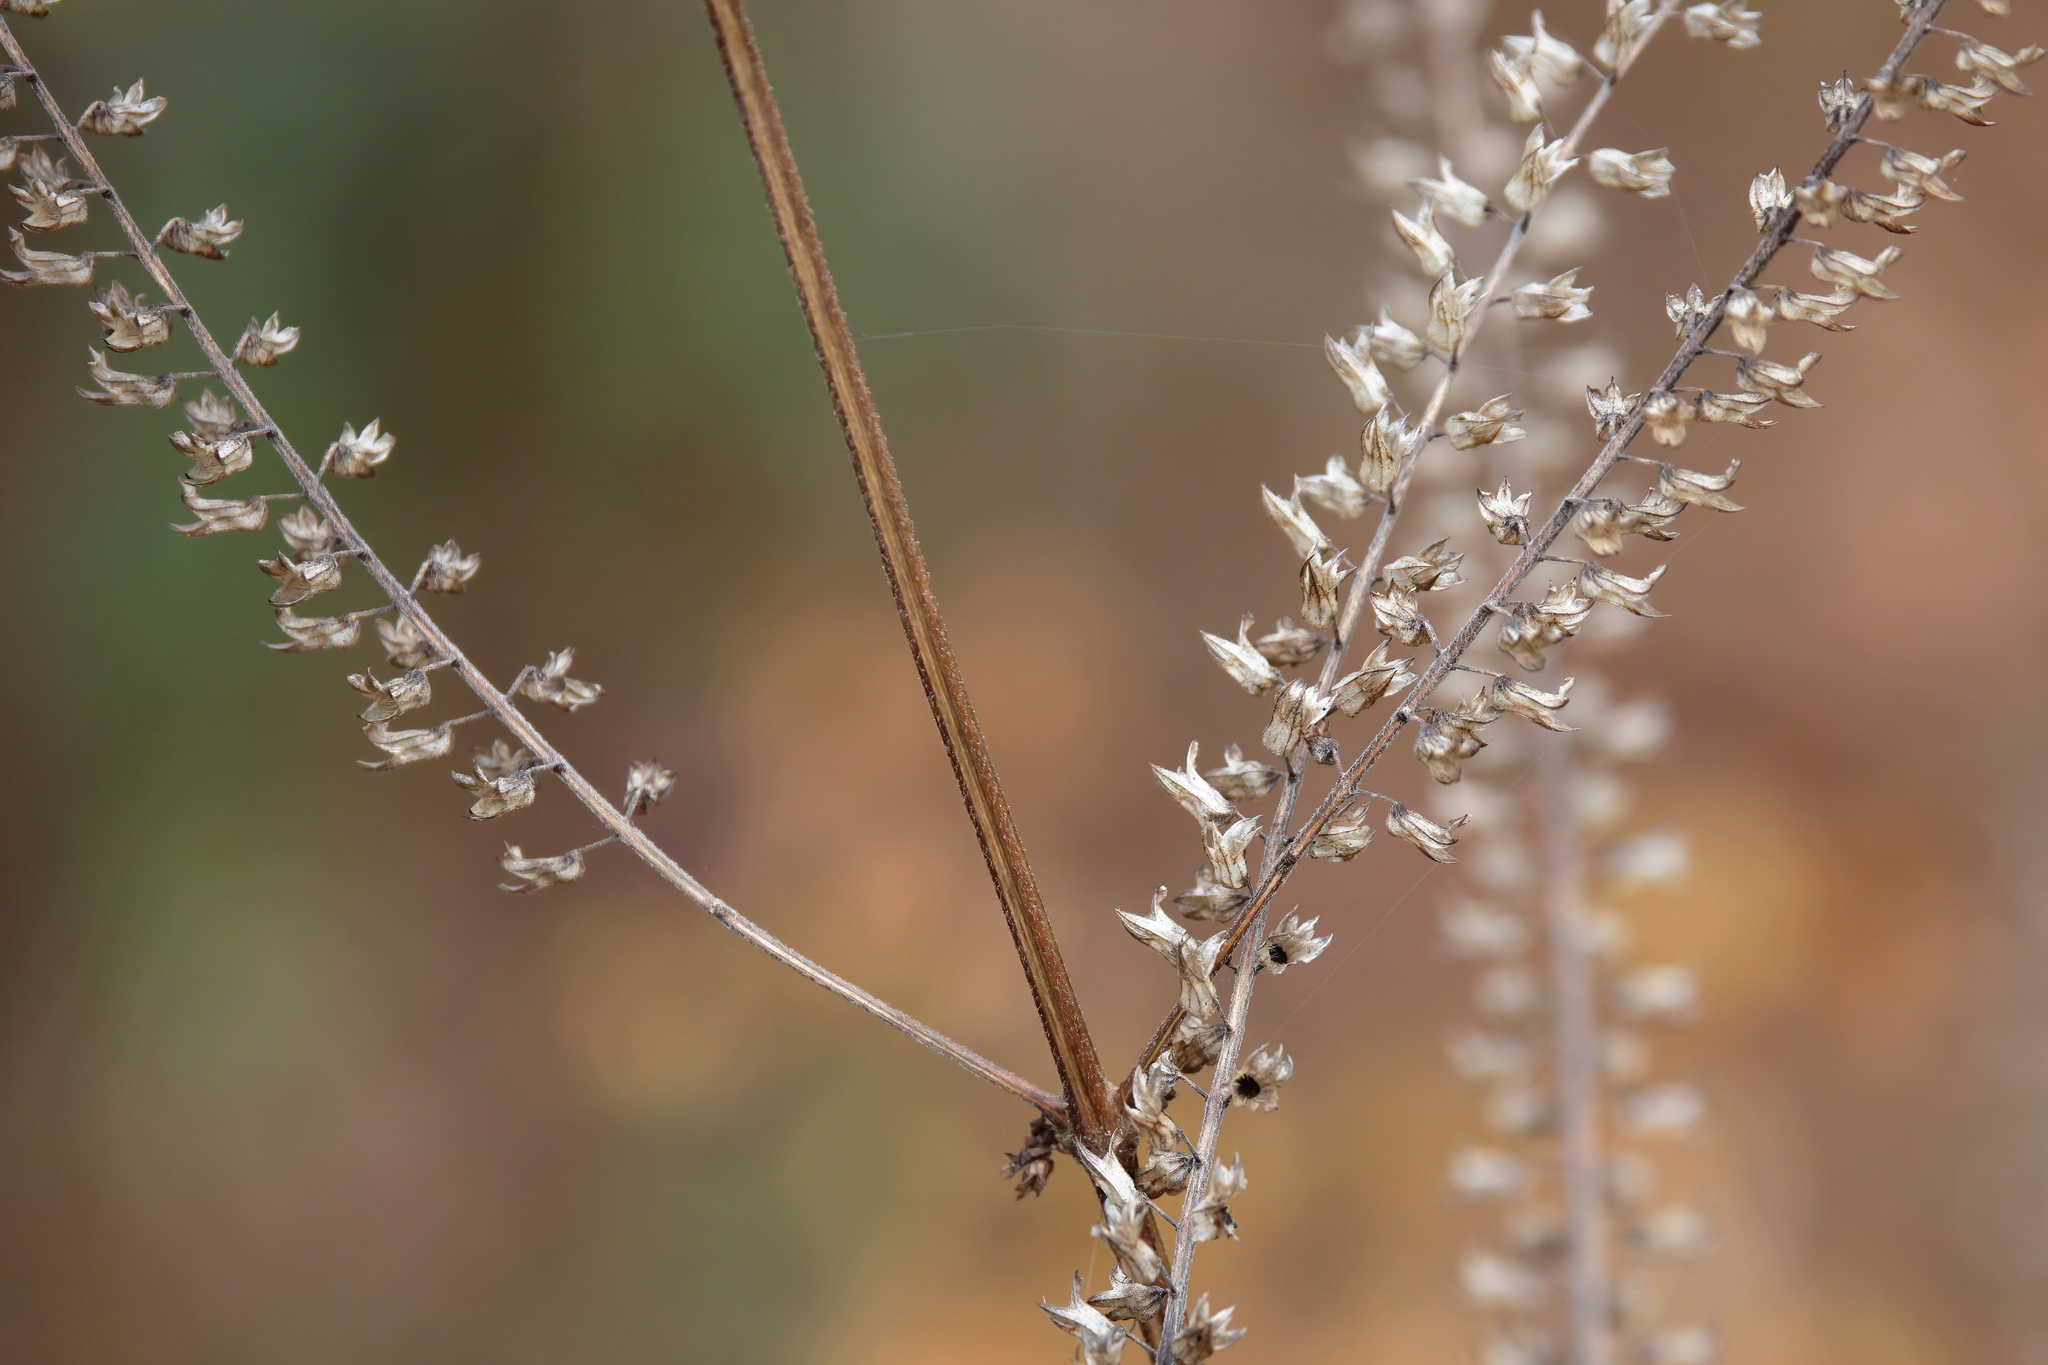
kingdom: Plantae
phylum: Tracheophyta
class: Magnoliopsida
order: Lamiales
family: Lamiaceae
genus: Perilla
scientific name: Perilla frutescens
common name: Perilla
